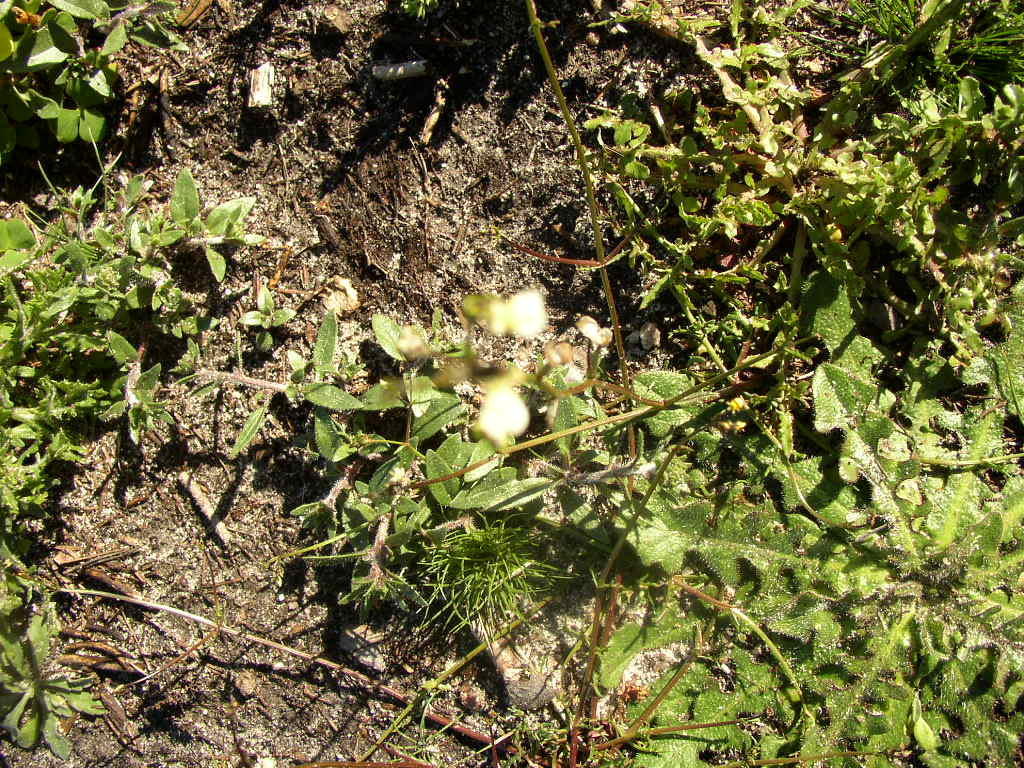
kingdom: Plantae
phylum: Tracheophyta
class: Magnoliopsida
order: Lamiales
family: Scrophulariaceae
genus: Nemesia
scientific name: Nemesia affinis
